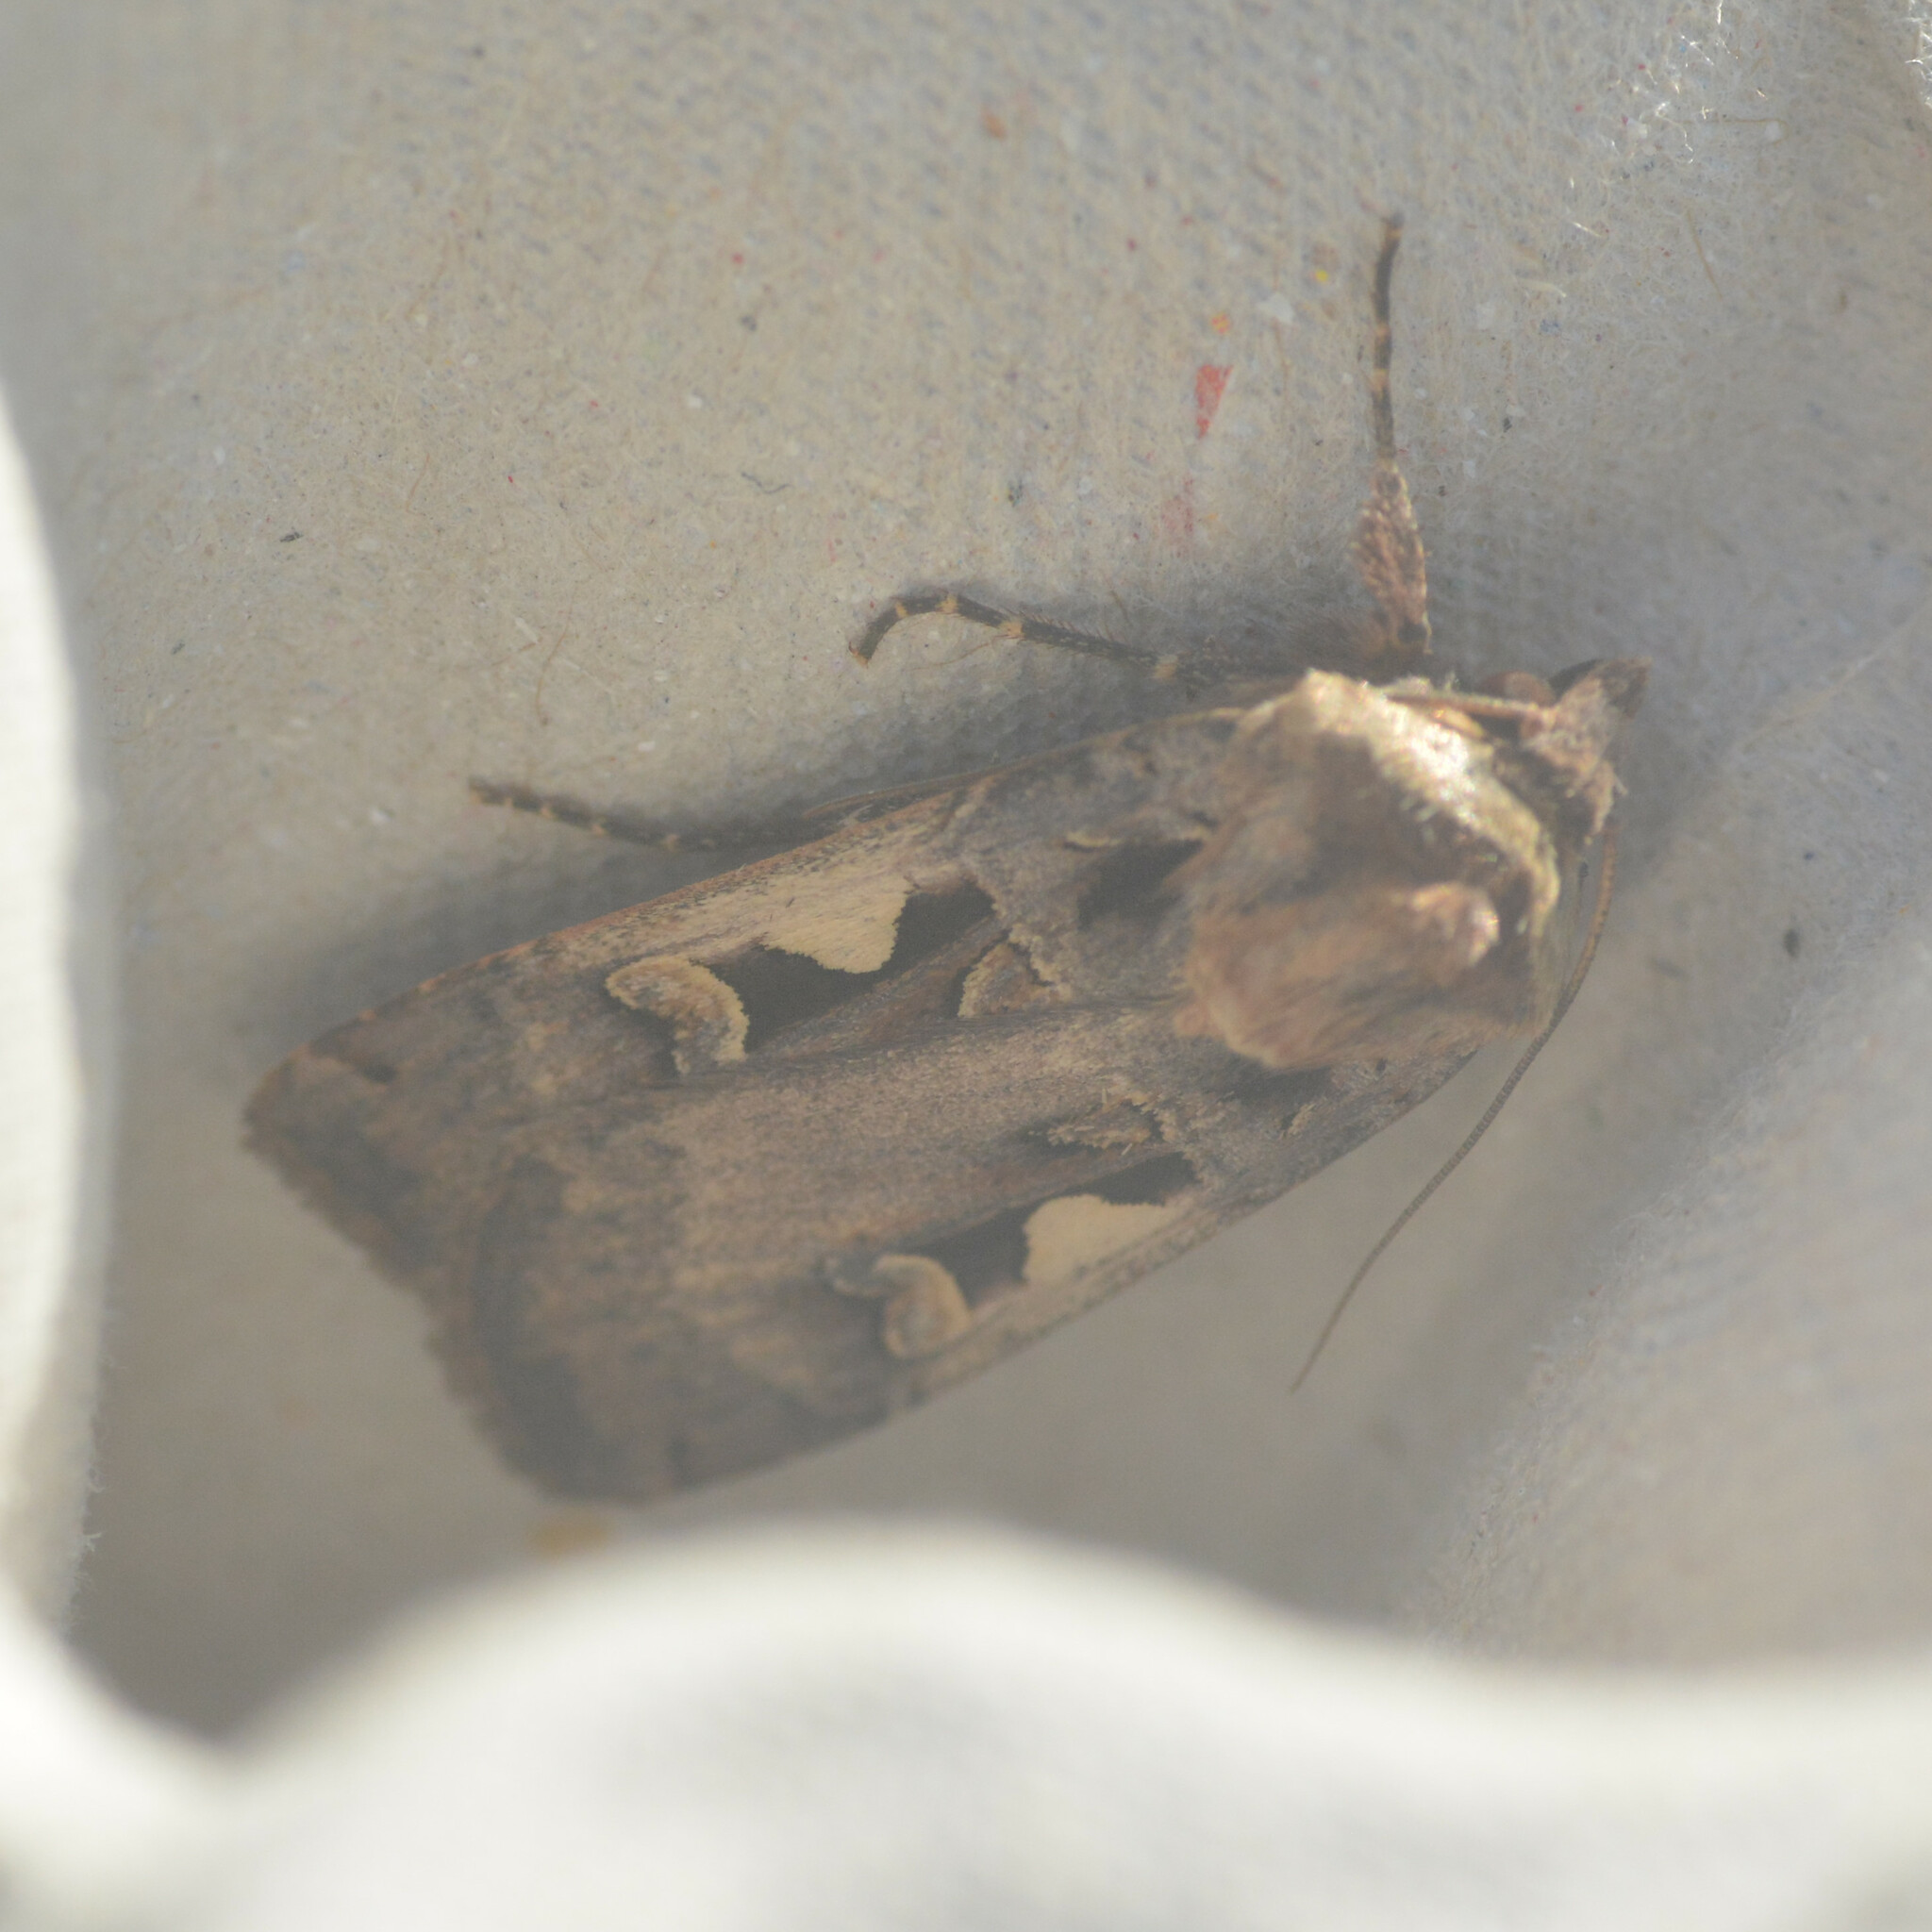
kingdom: Animalia
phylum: Arthropoda
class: Insecta
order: Lepidoptera
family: Noctuidae
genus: Xestia
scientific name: Xestia c-nigrum
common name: Setaceous hebrew character
